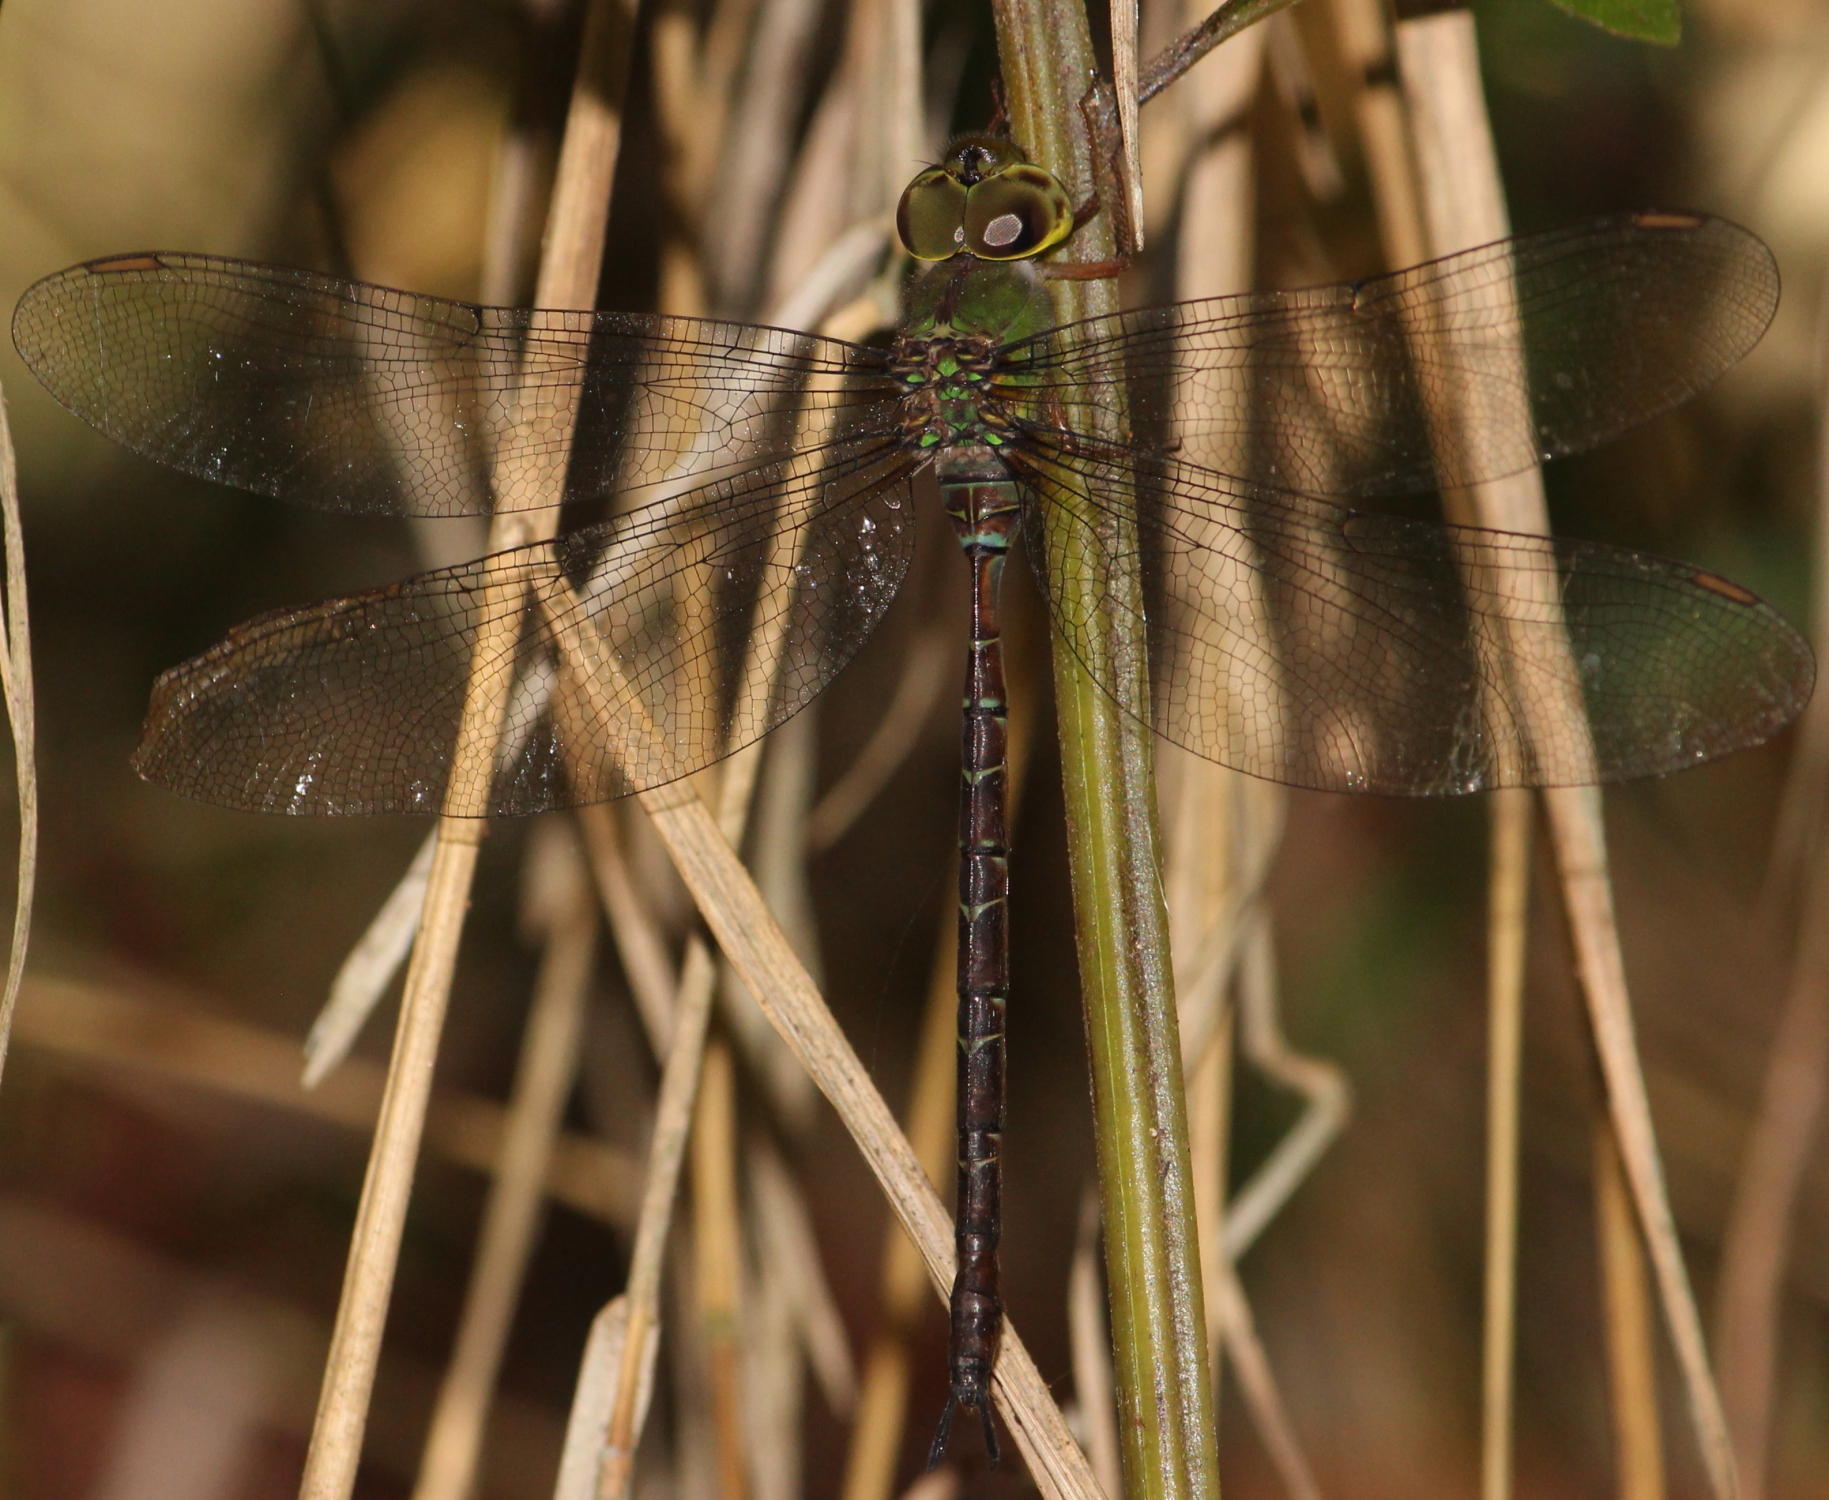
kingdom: Animalia
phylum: Arthropoda
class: Insecta
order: Odonata
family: Aeshnidae
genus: Gynacantha
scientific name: Gynacantha usambarica
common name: Eastern duskhawker
